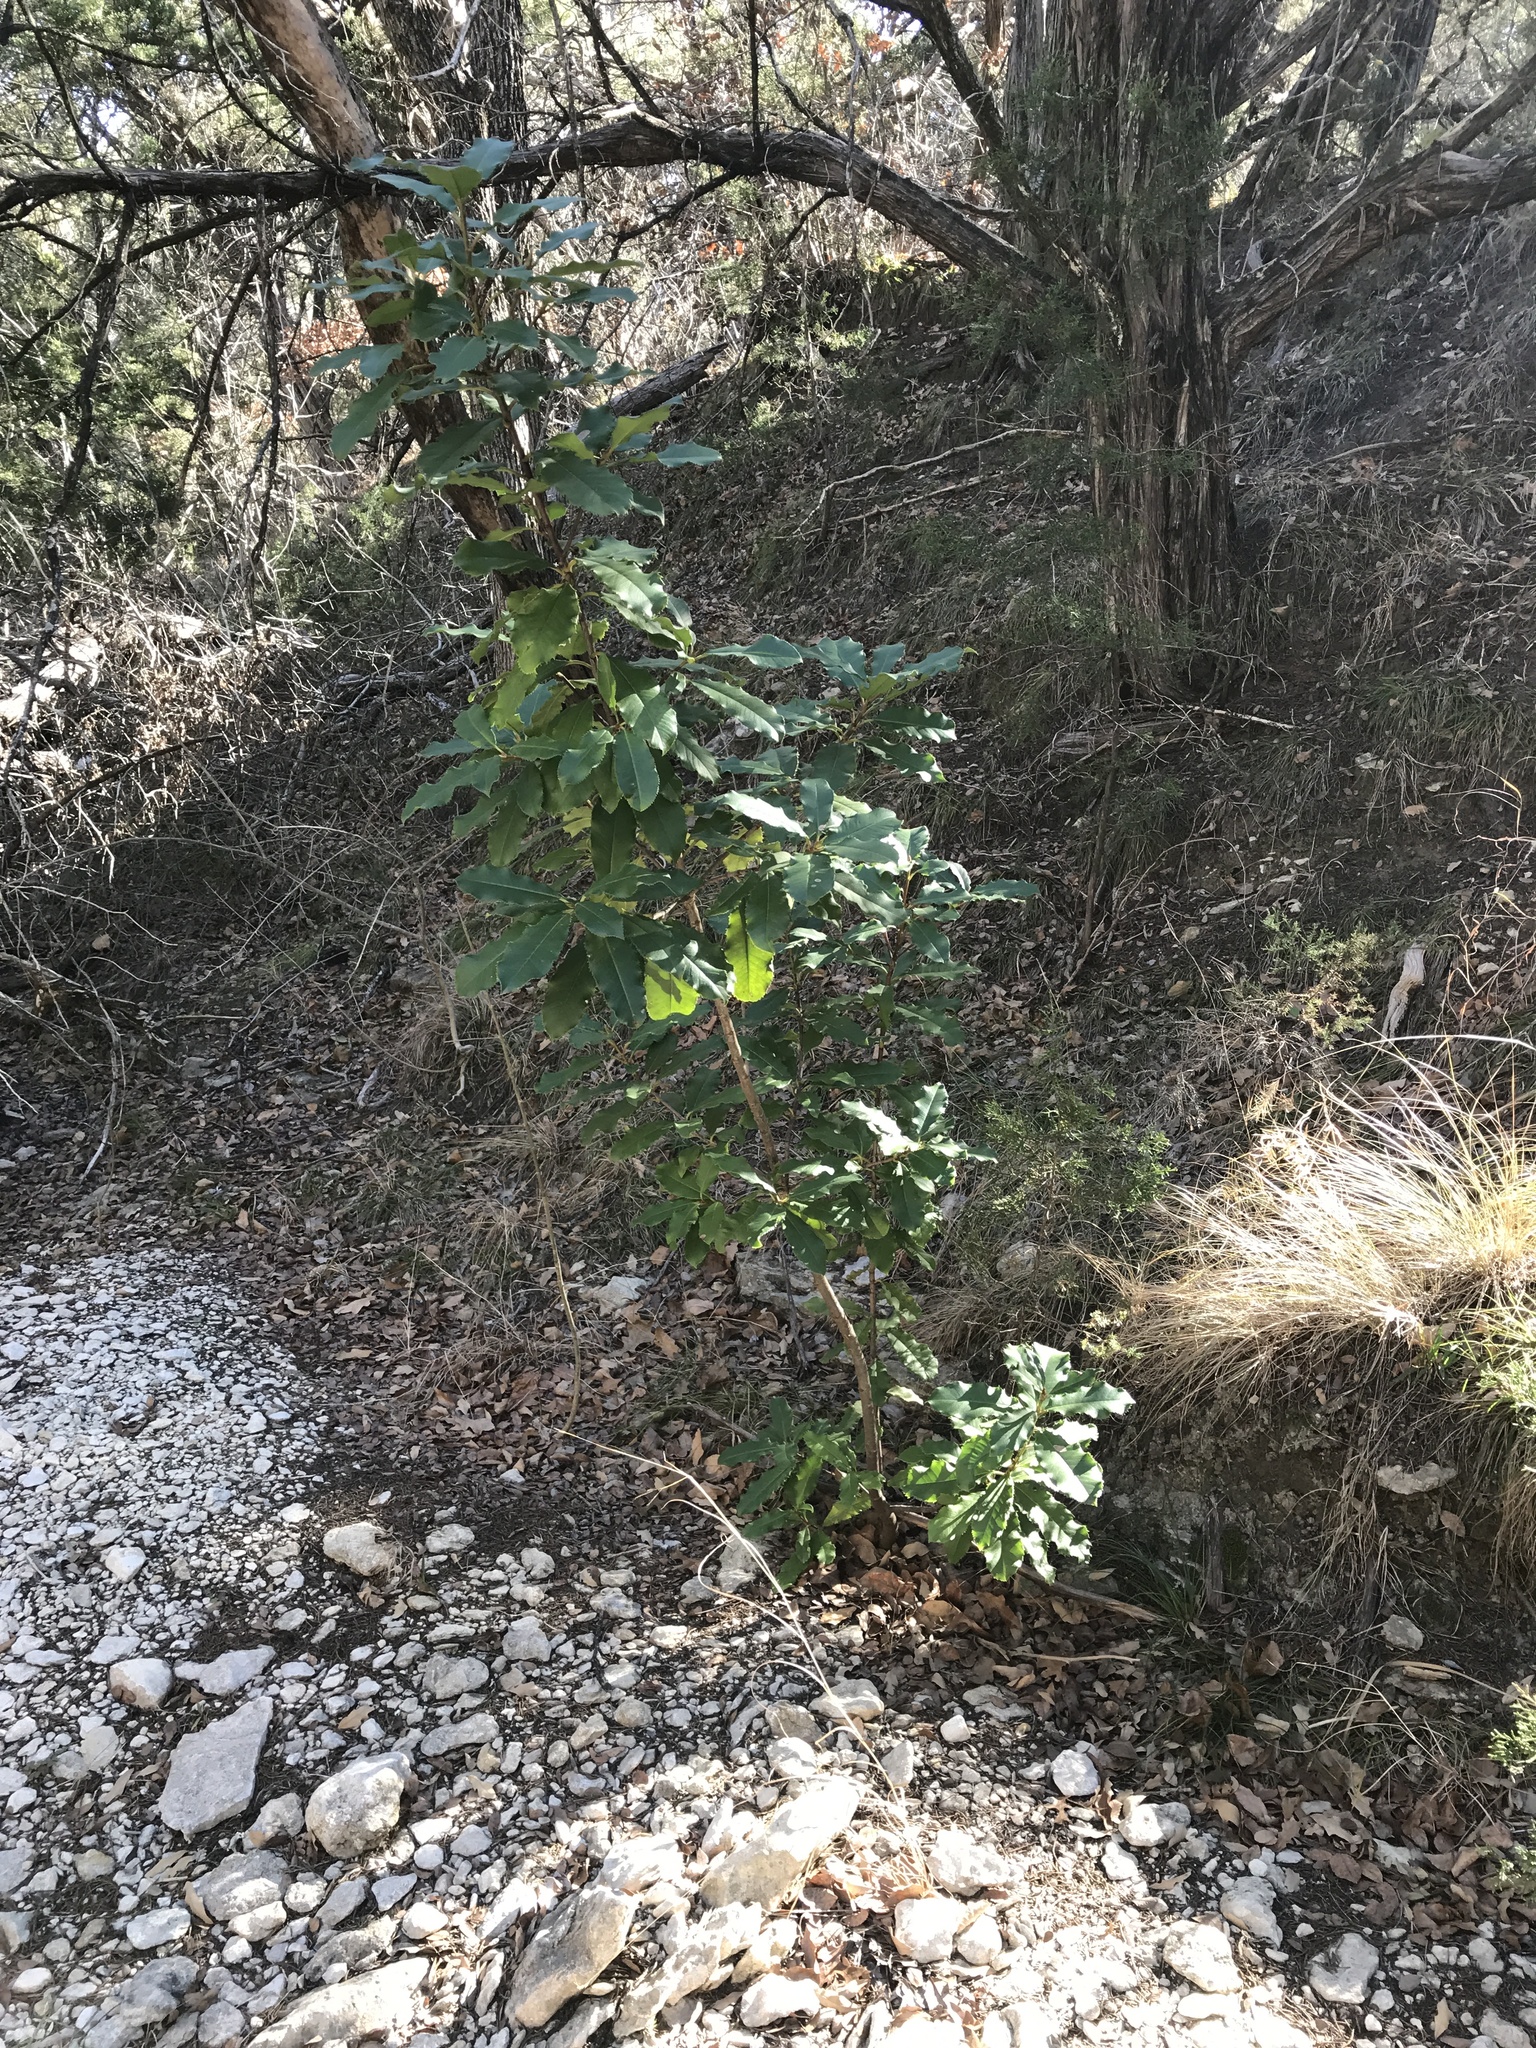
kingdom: Plantae
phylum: Tracheophyta
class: Magnoliopsida
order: Rosales
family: Rosaceae
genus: Photinia
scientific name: Photinia serratifolia
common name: Taiwanese photinia
